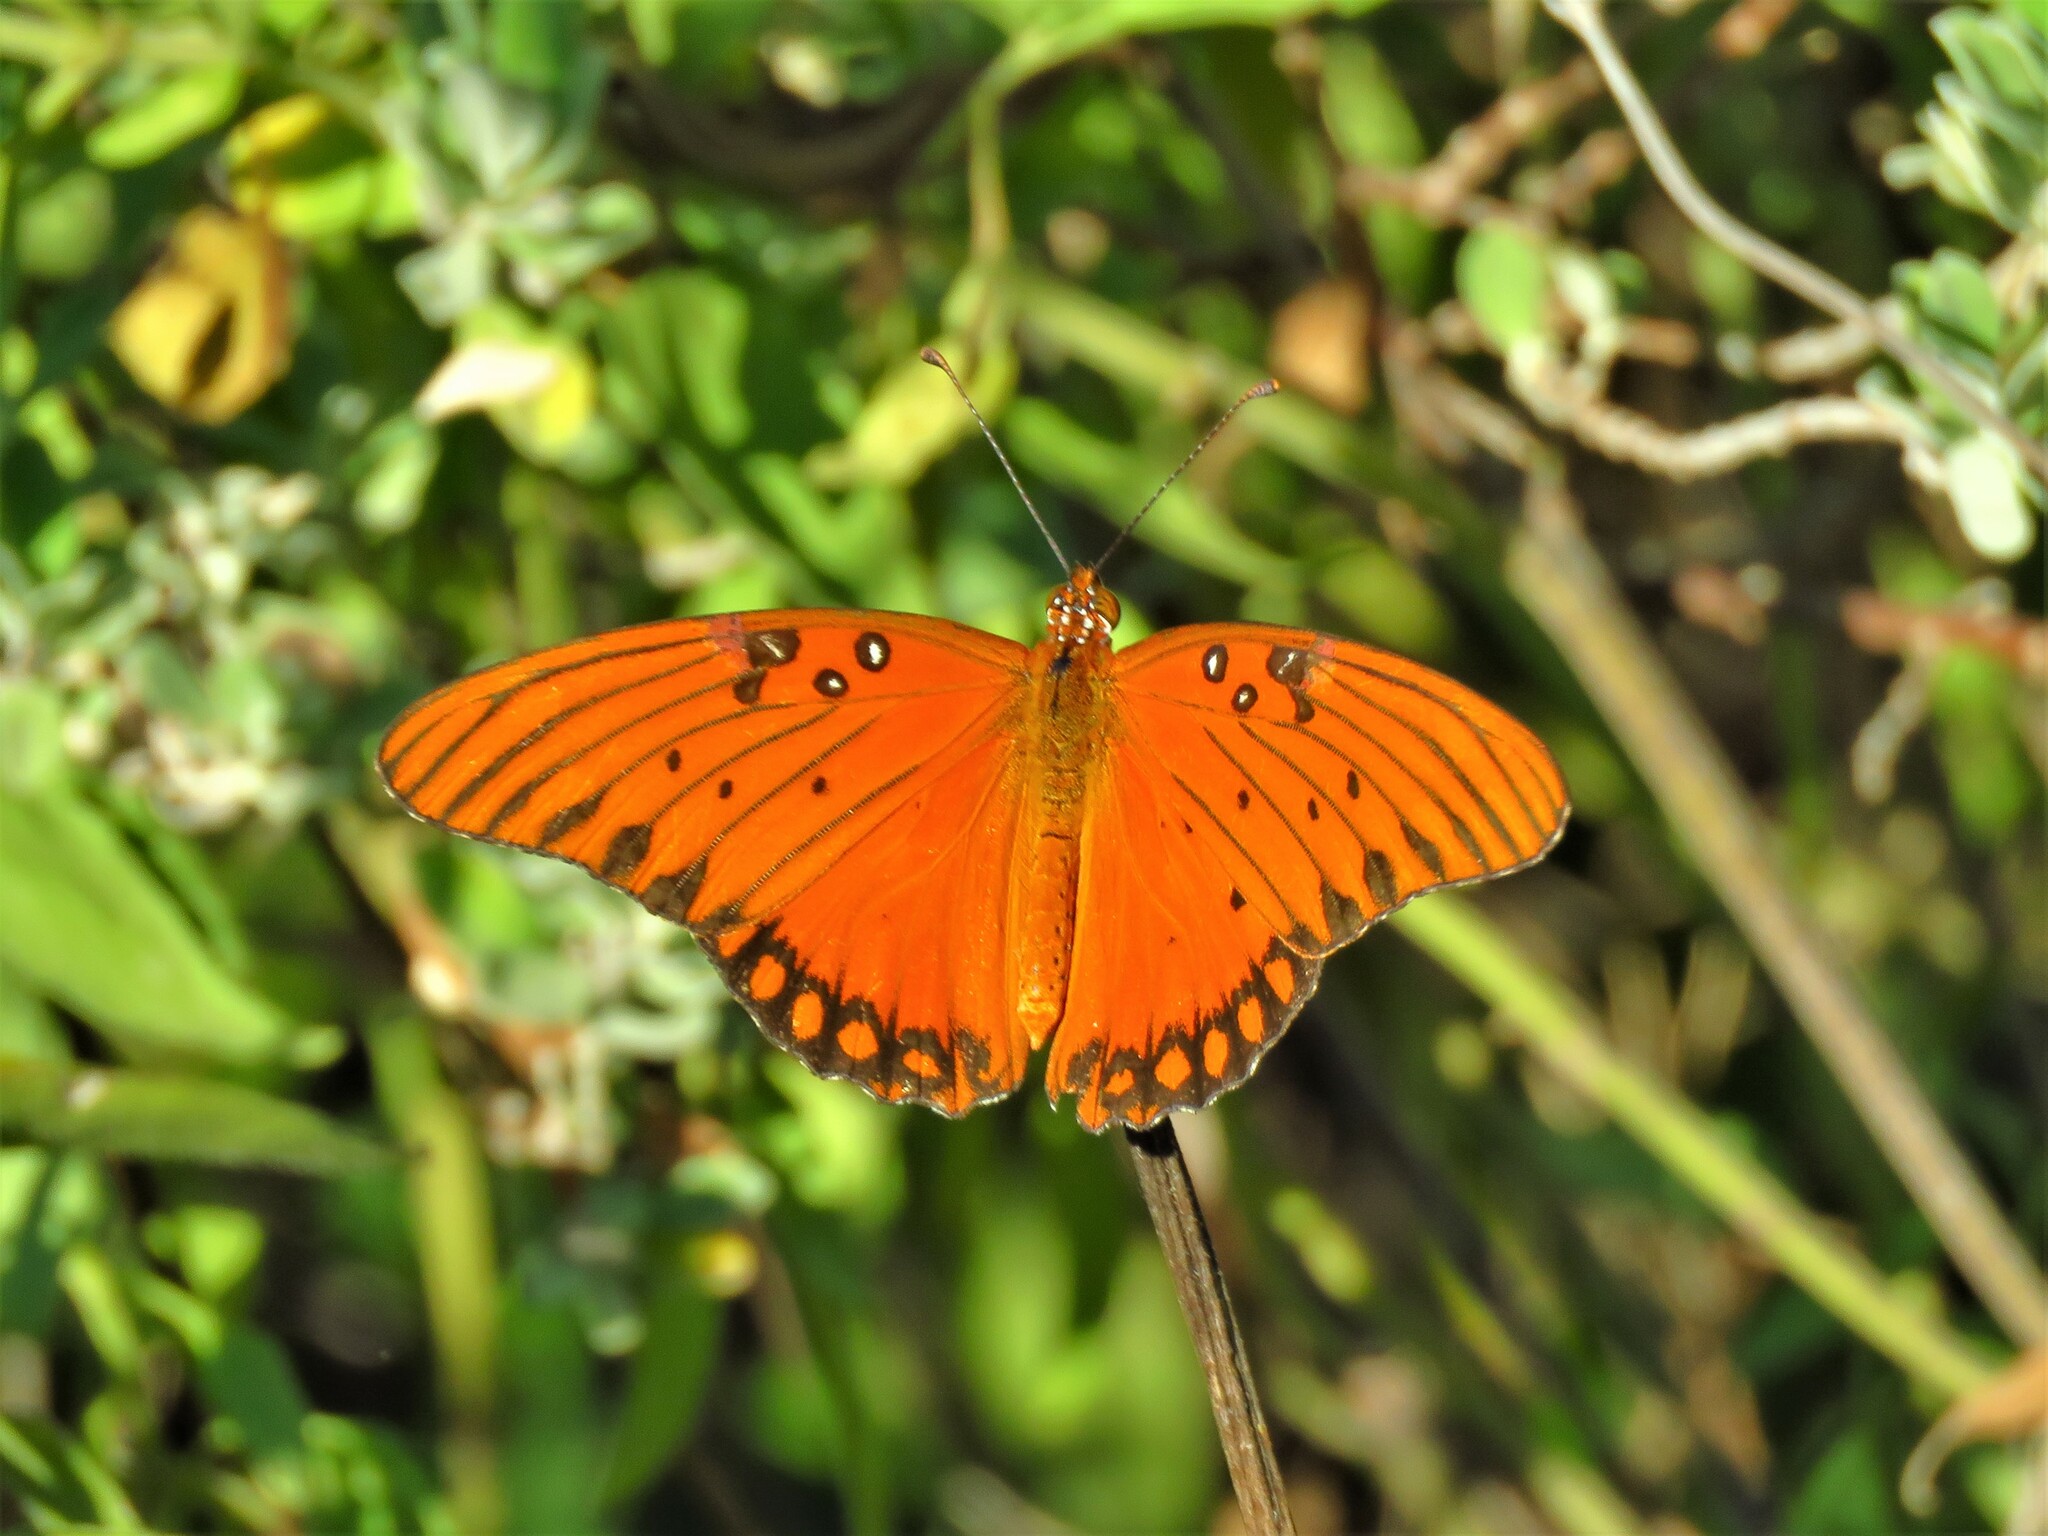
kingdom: Animalia
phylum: Arthropoda
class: Insecta
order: Lepidoptera
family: Nymphalidae
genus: Dione
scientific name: Dione vanillae
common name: Gulf fritillary
